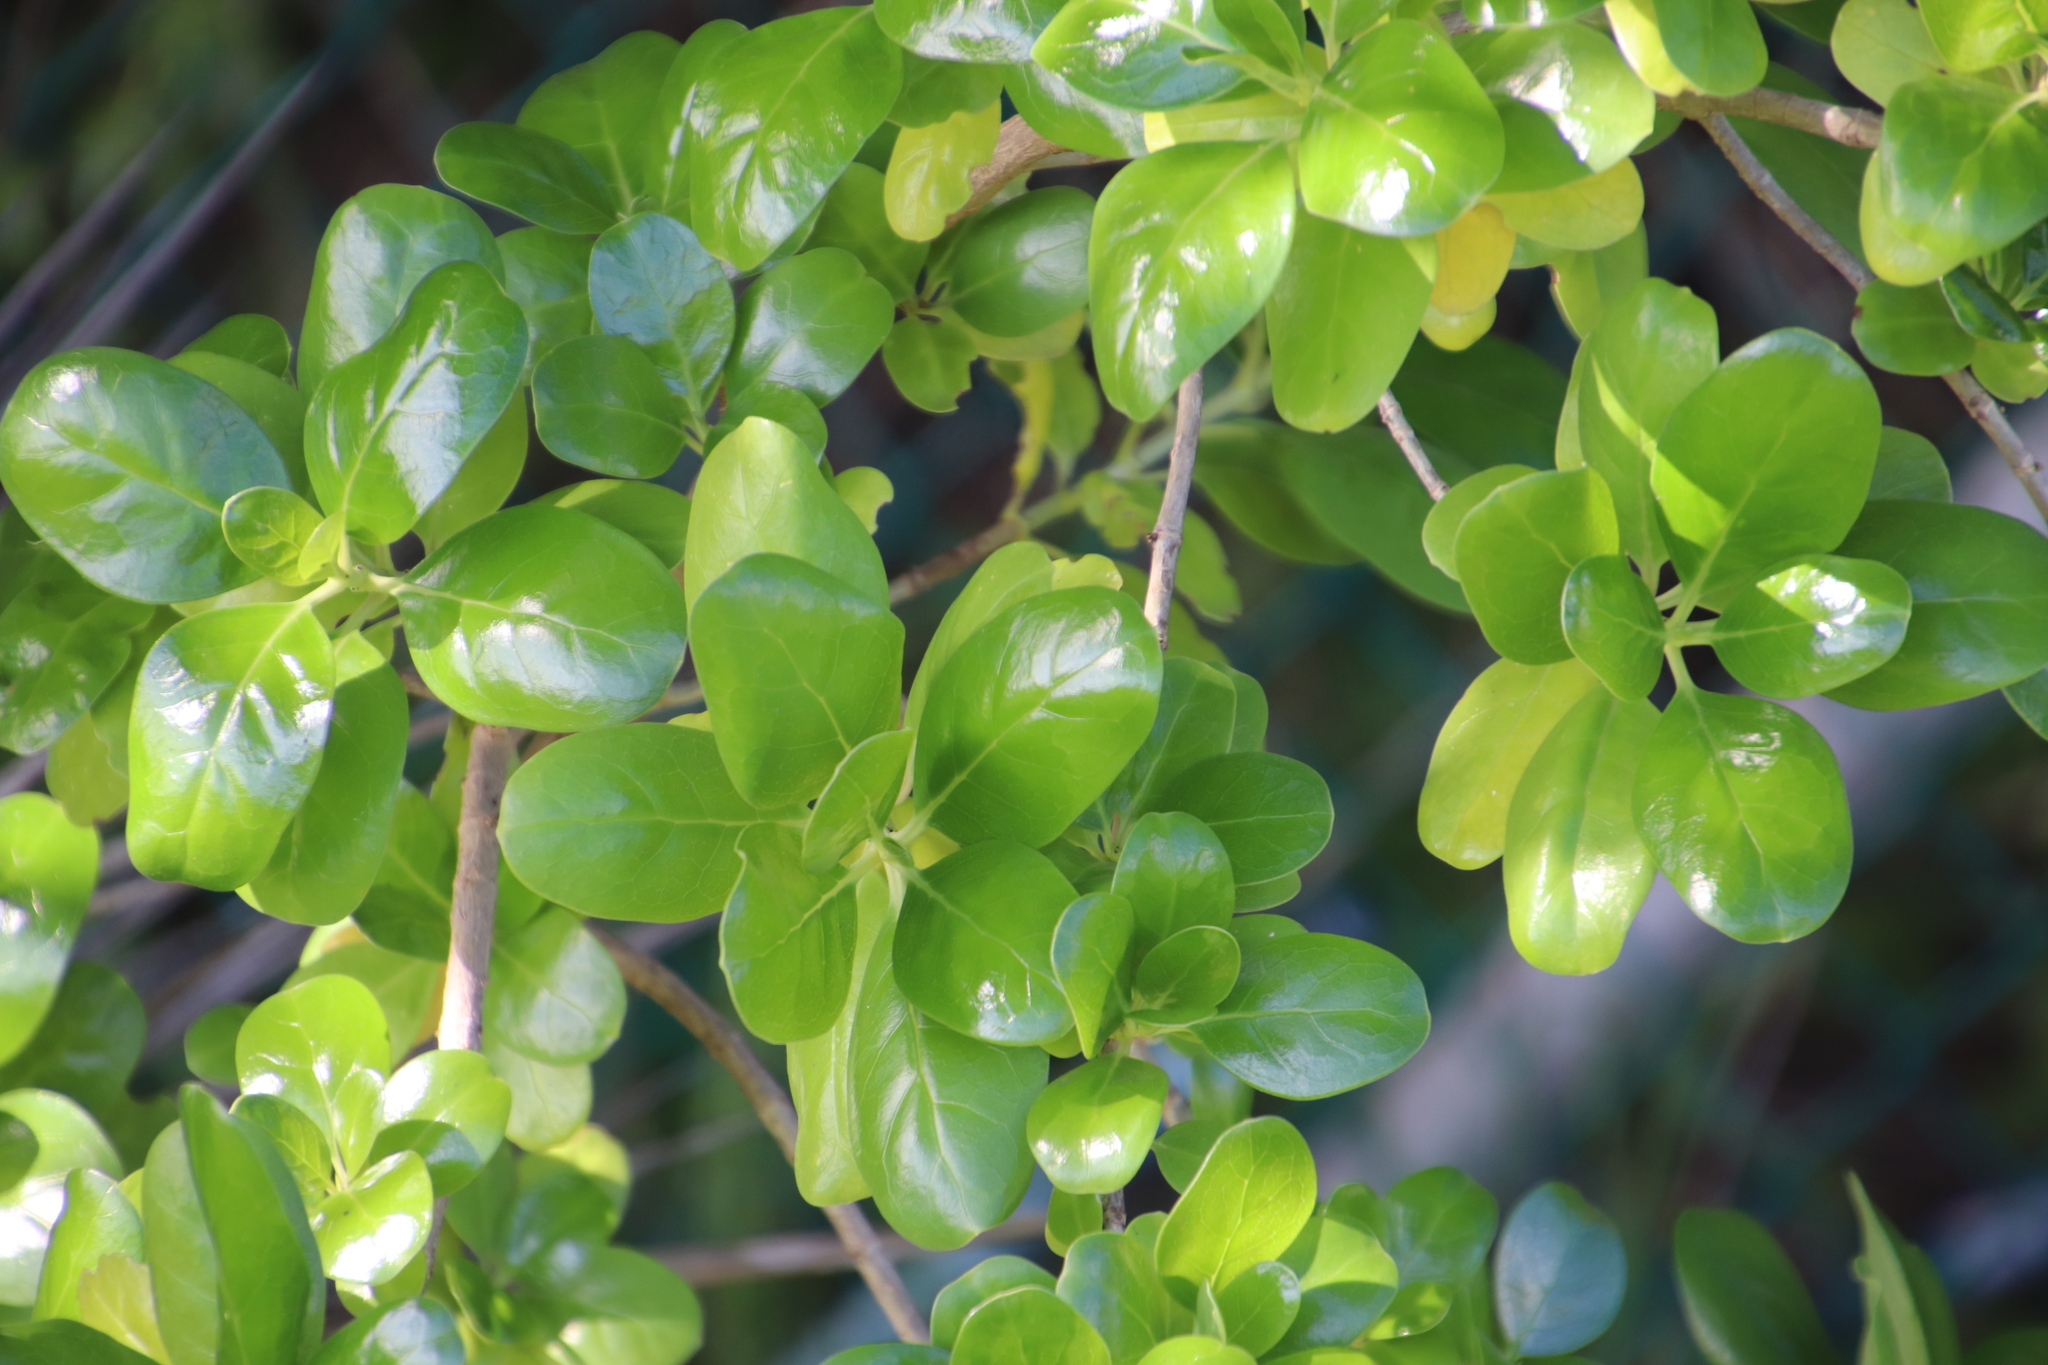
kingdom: Plantae
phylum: Tracheophyta
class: Magnoliopsida
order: Gentianales
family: Rubiaceae
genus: Coprosma
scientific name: Coprosma repens
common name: Tree bedstraw
